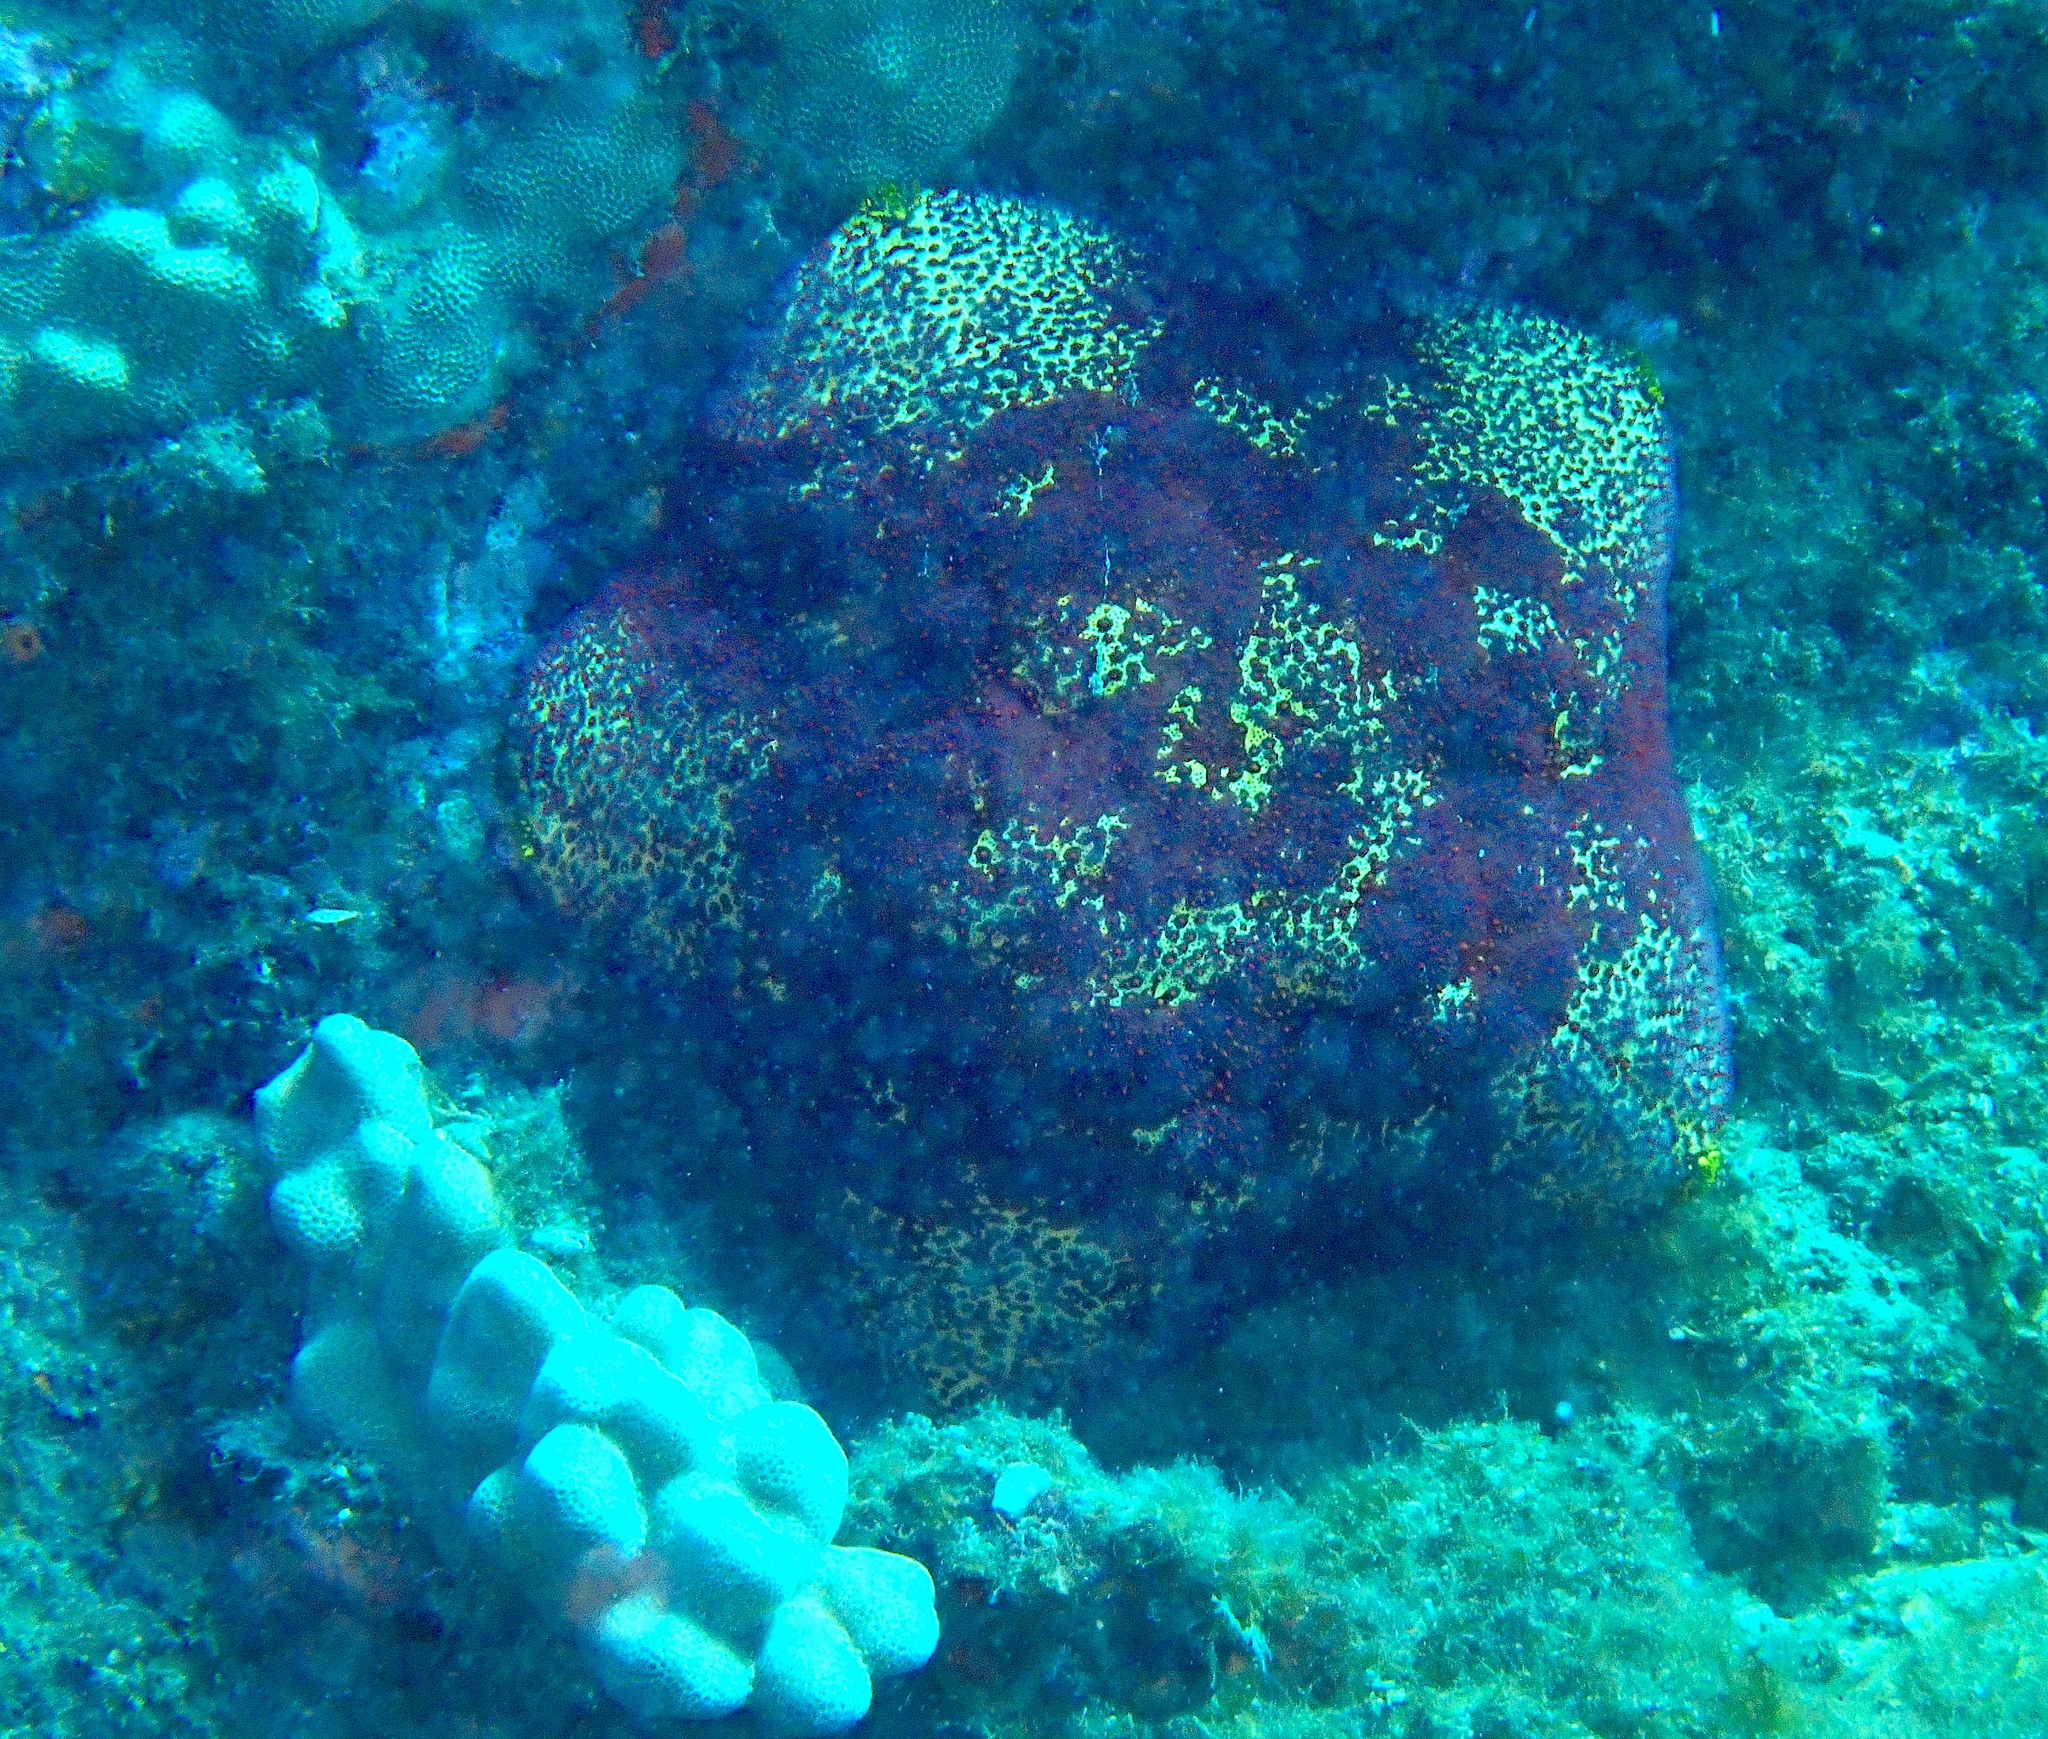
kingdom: Animalia
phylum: Echinodermata
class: Asteroidea
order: Valvatida
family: Oreasteridae
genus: Culcita
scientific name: Culcita novaeguineae
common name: Cushion star
